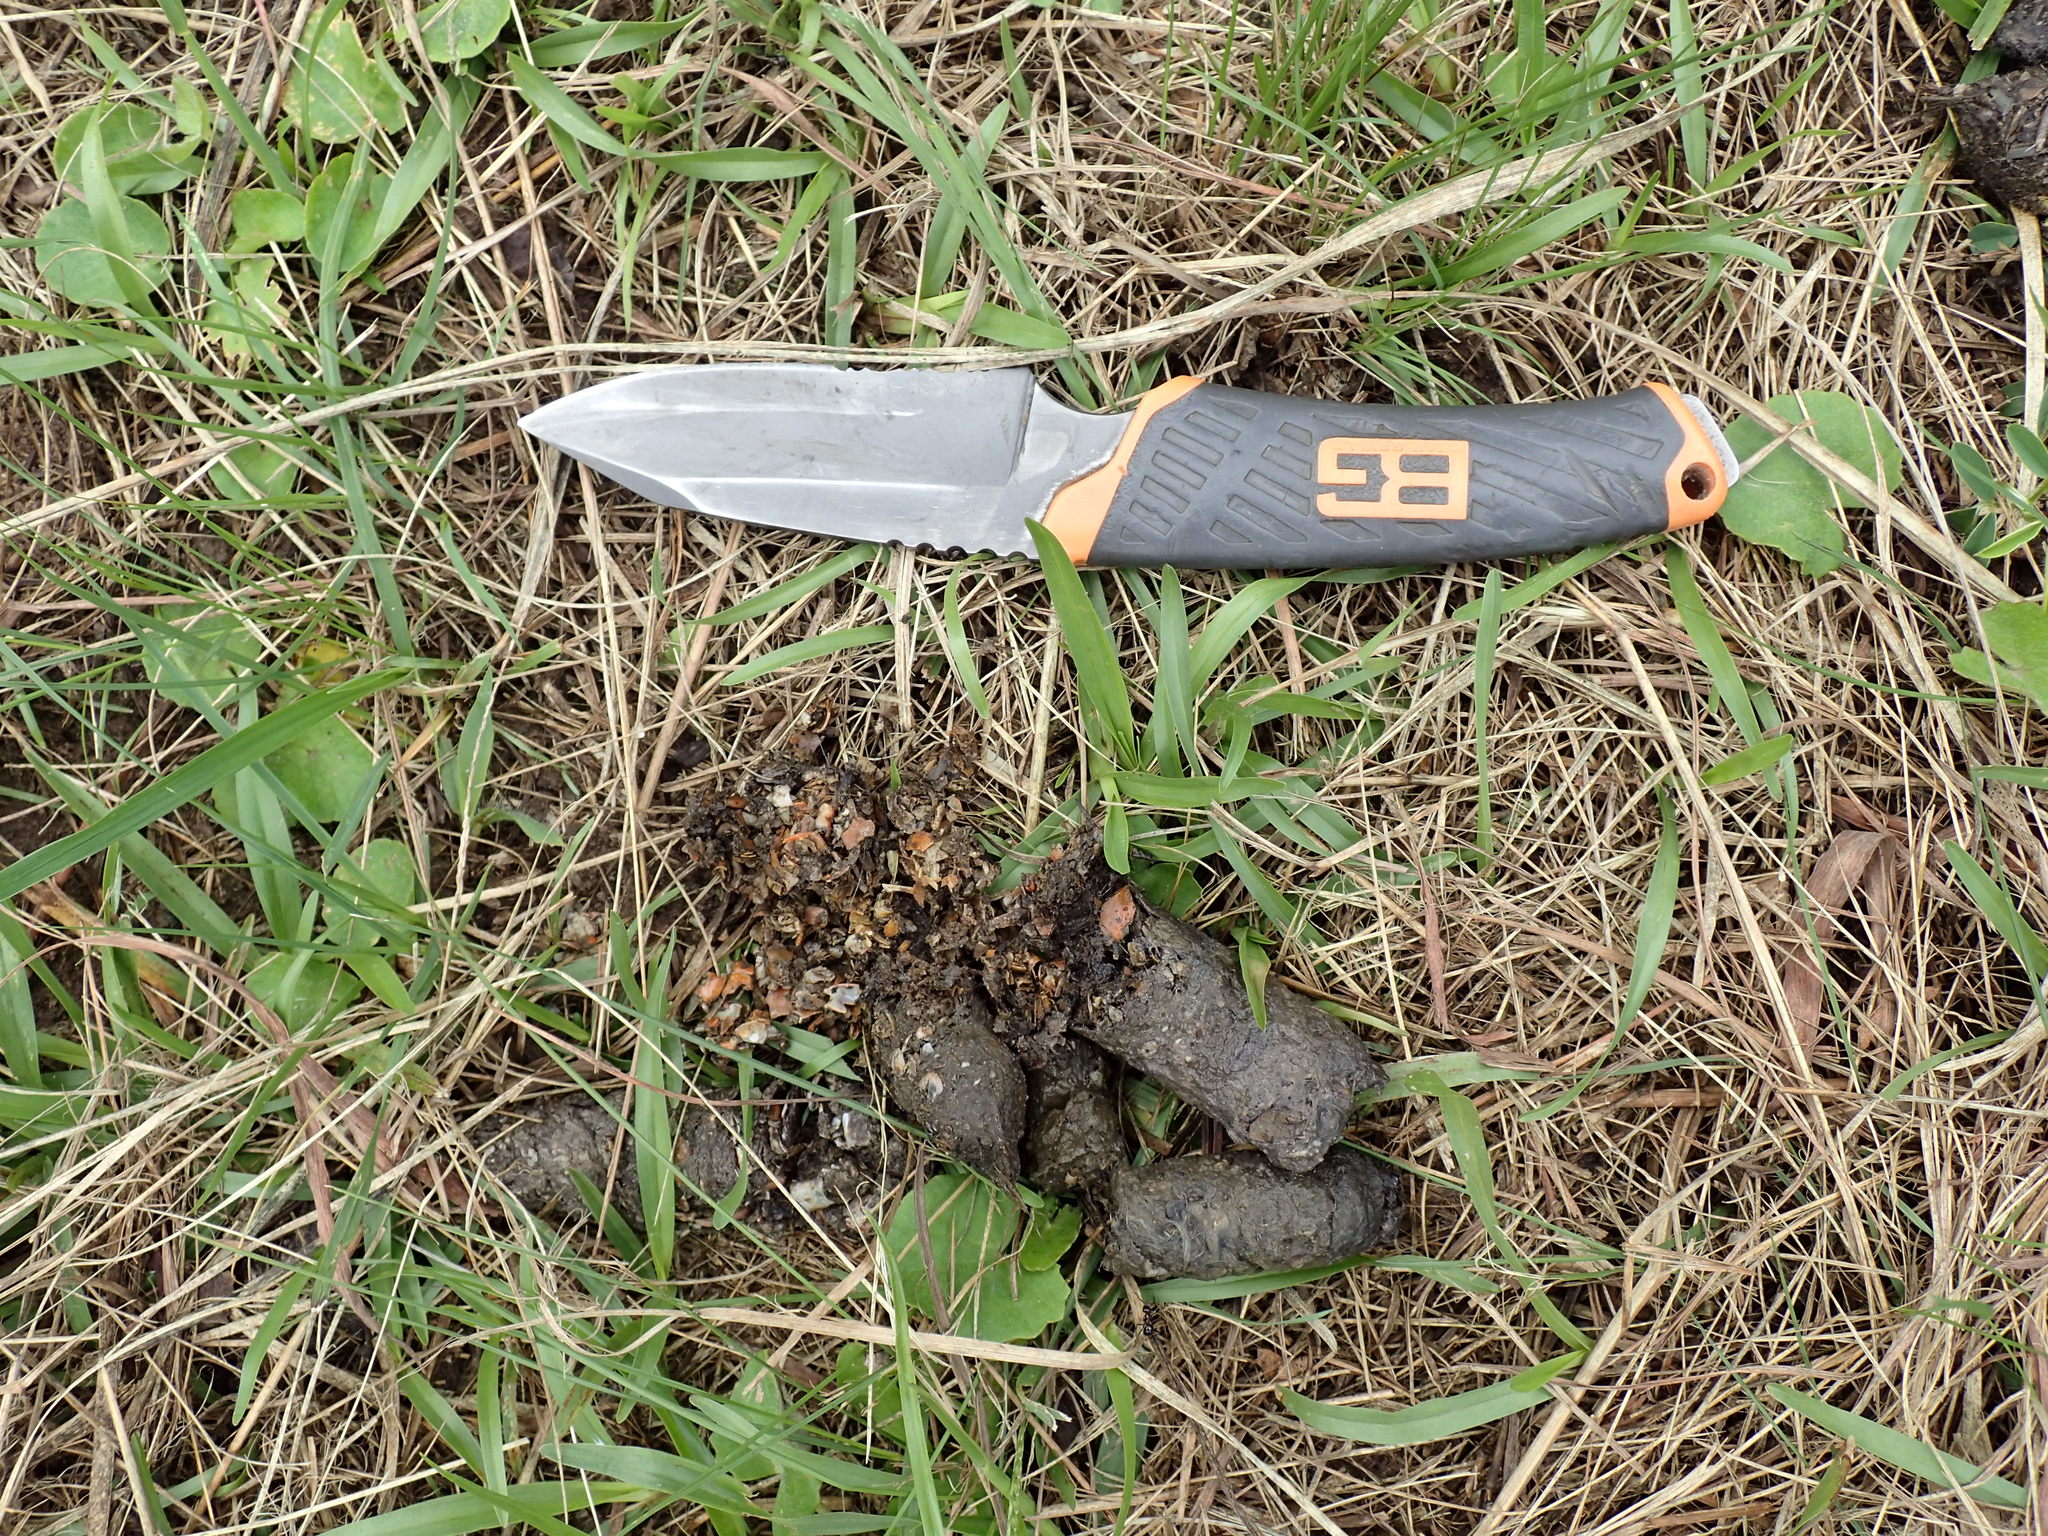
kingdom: Animalia
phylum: Chordata
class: Mammalia
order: Carnivora
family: Herpestidae
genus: Atilax
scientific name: Atilax paludinosus
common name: Marsh mongoose
